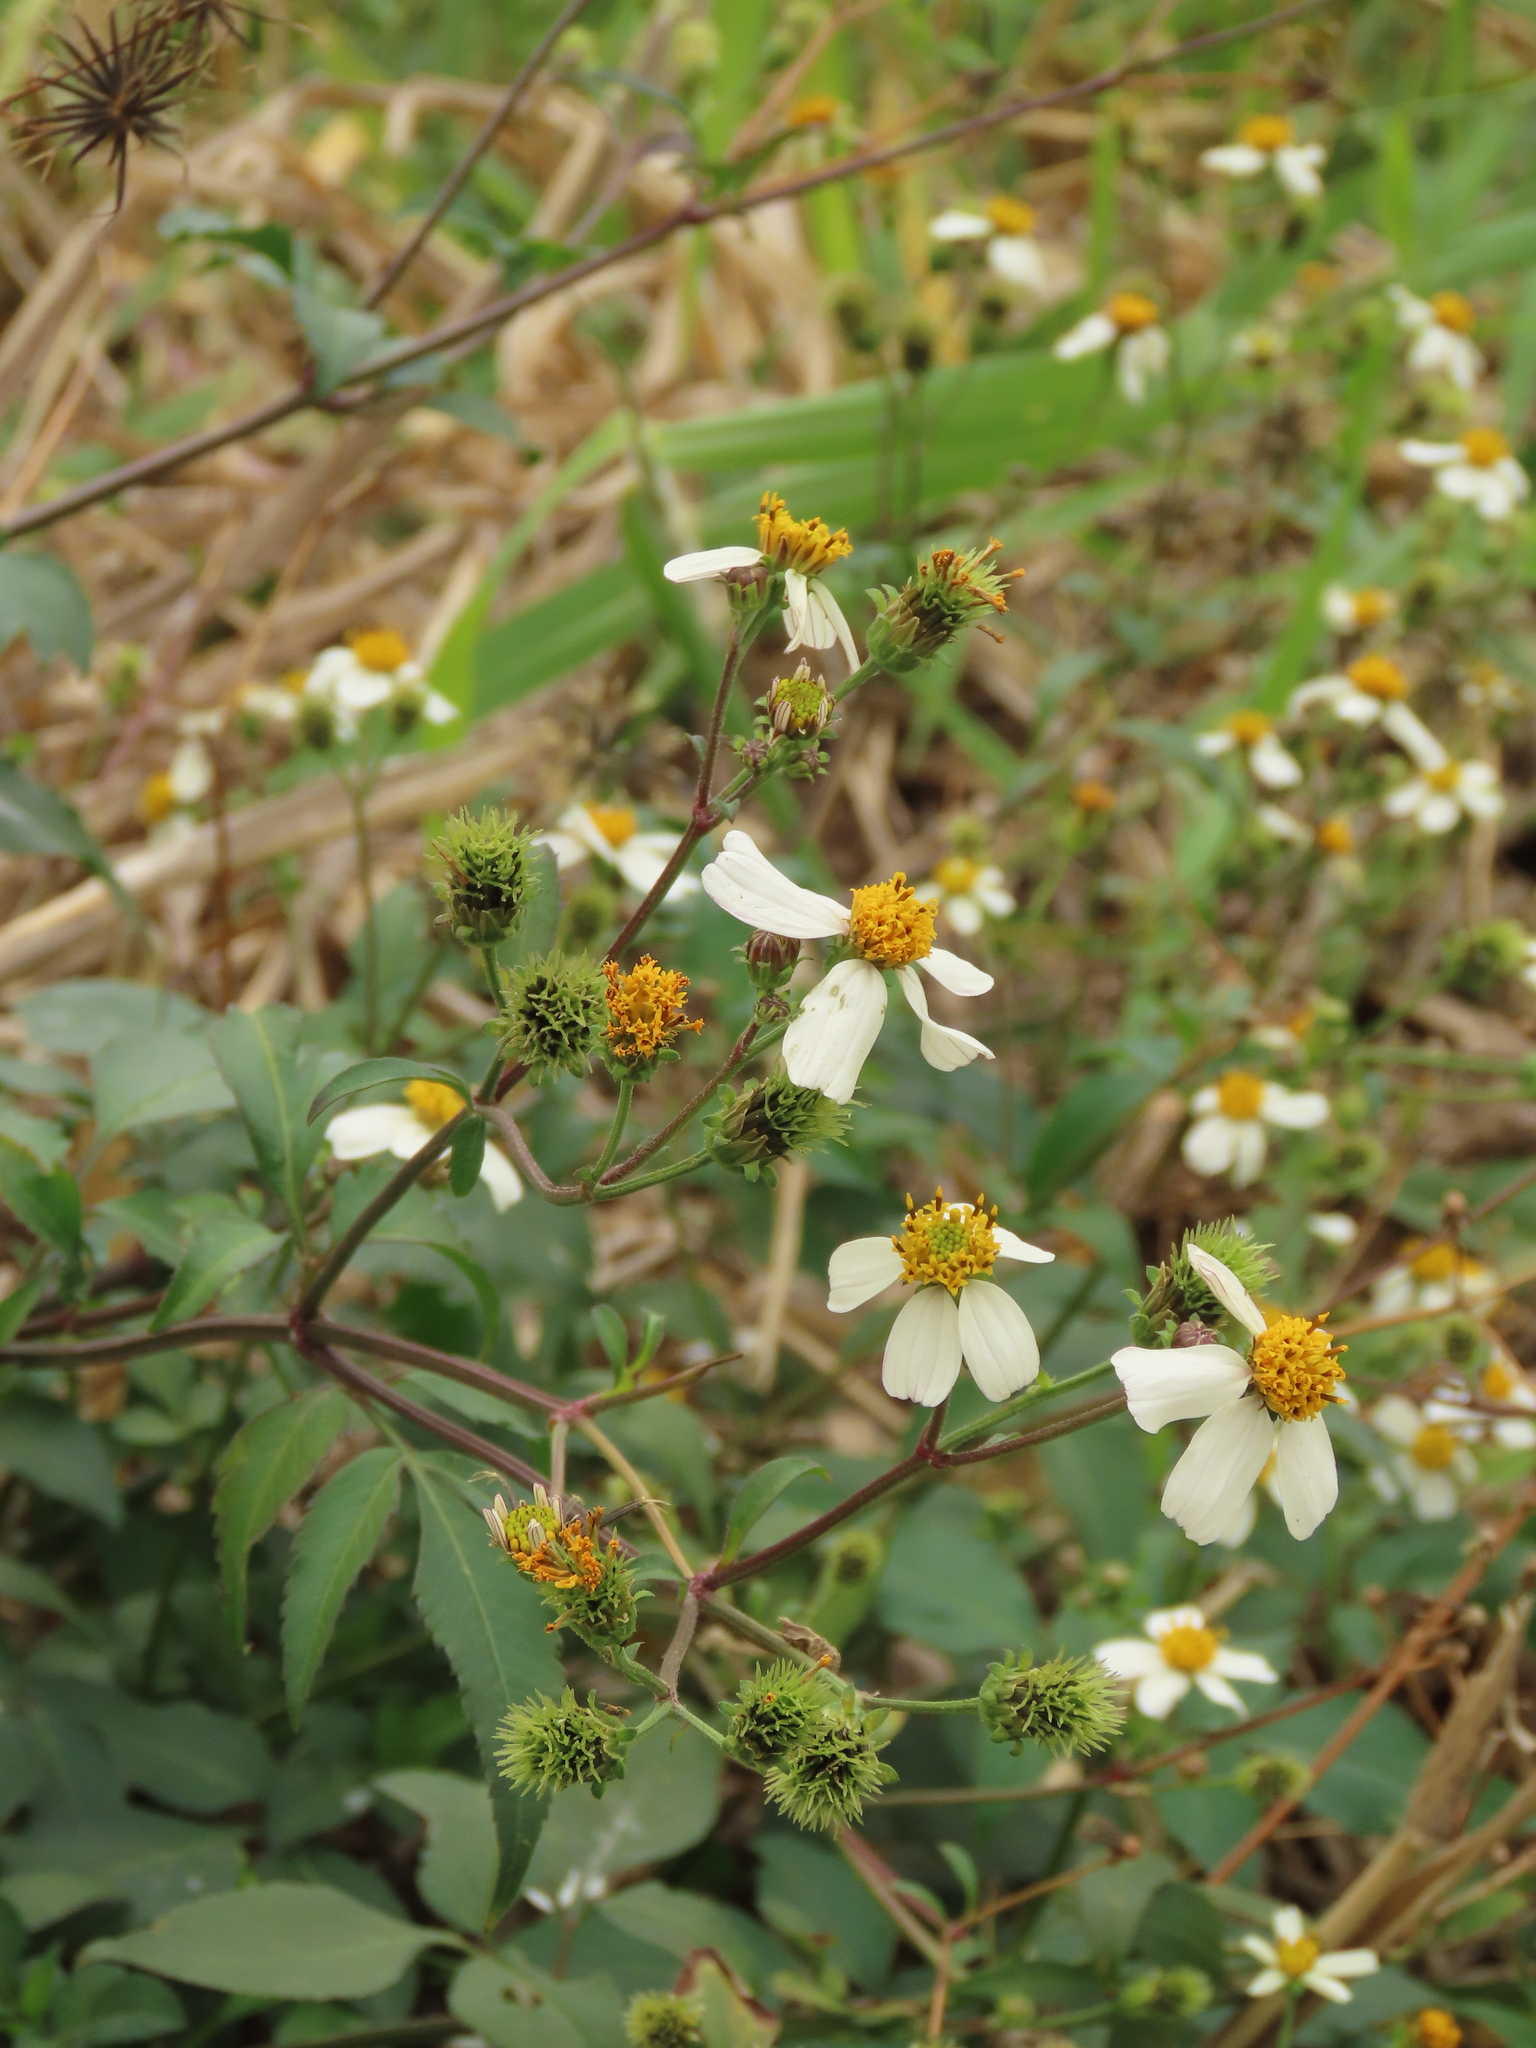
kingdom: Plantae
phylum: Tracheophyta
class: Magnoliopsida
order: Asterales
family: Asteraceae
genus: Bidens
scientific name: Bidens alba
